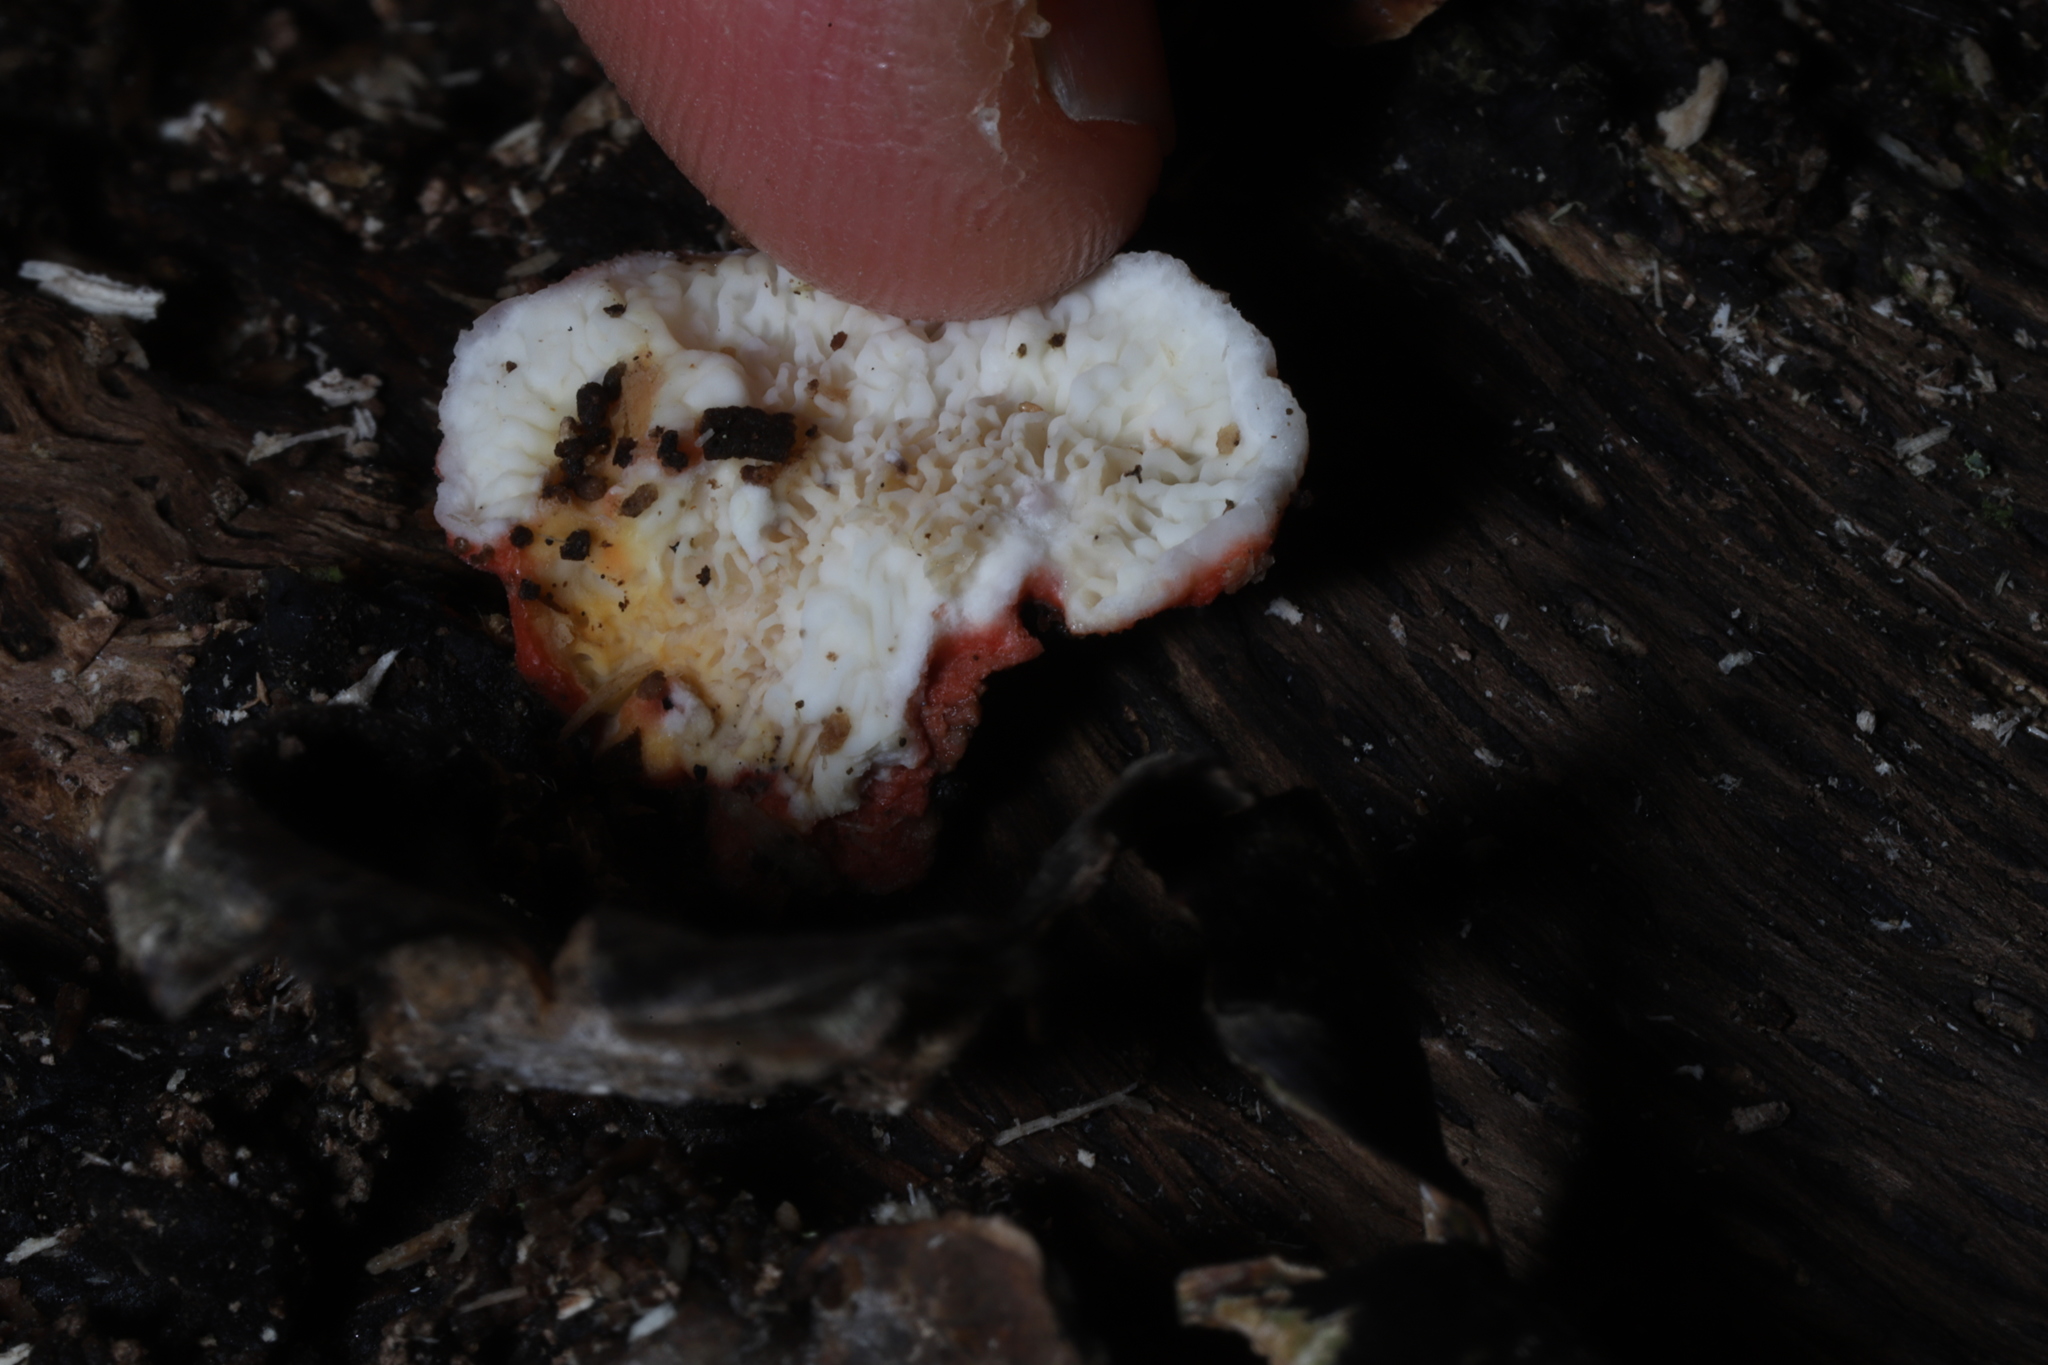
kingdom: Fungi
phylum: Basidiomycota
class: Agaricomycetes
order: Polyporales
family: Irpicaceae
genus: Byssomerulius
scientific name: Byssomerulius incarnatus
